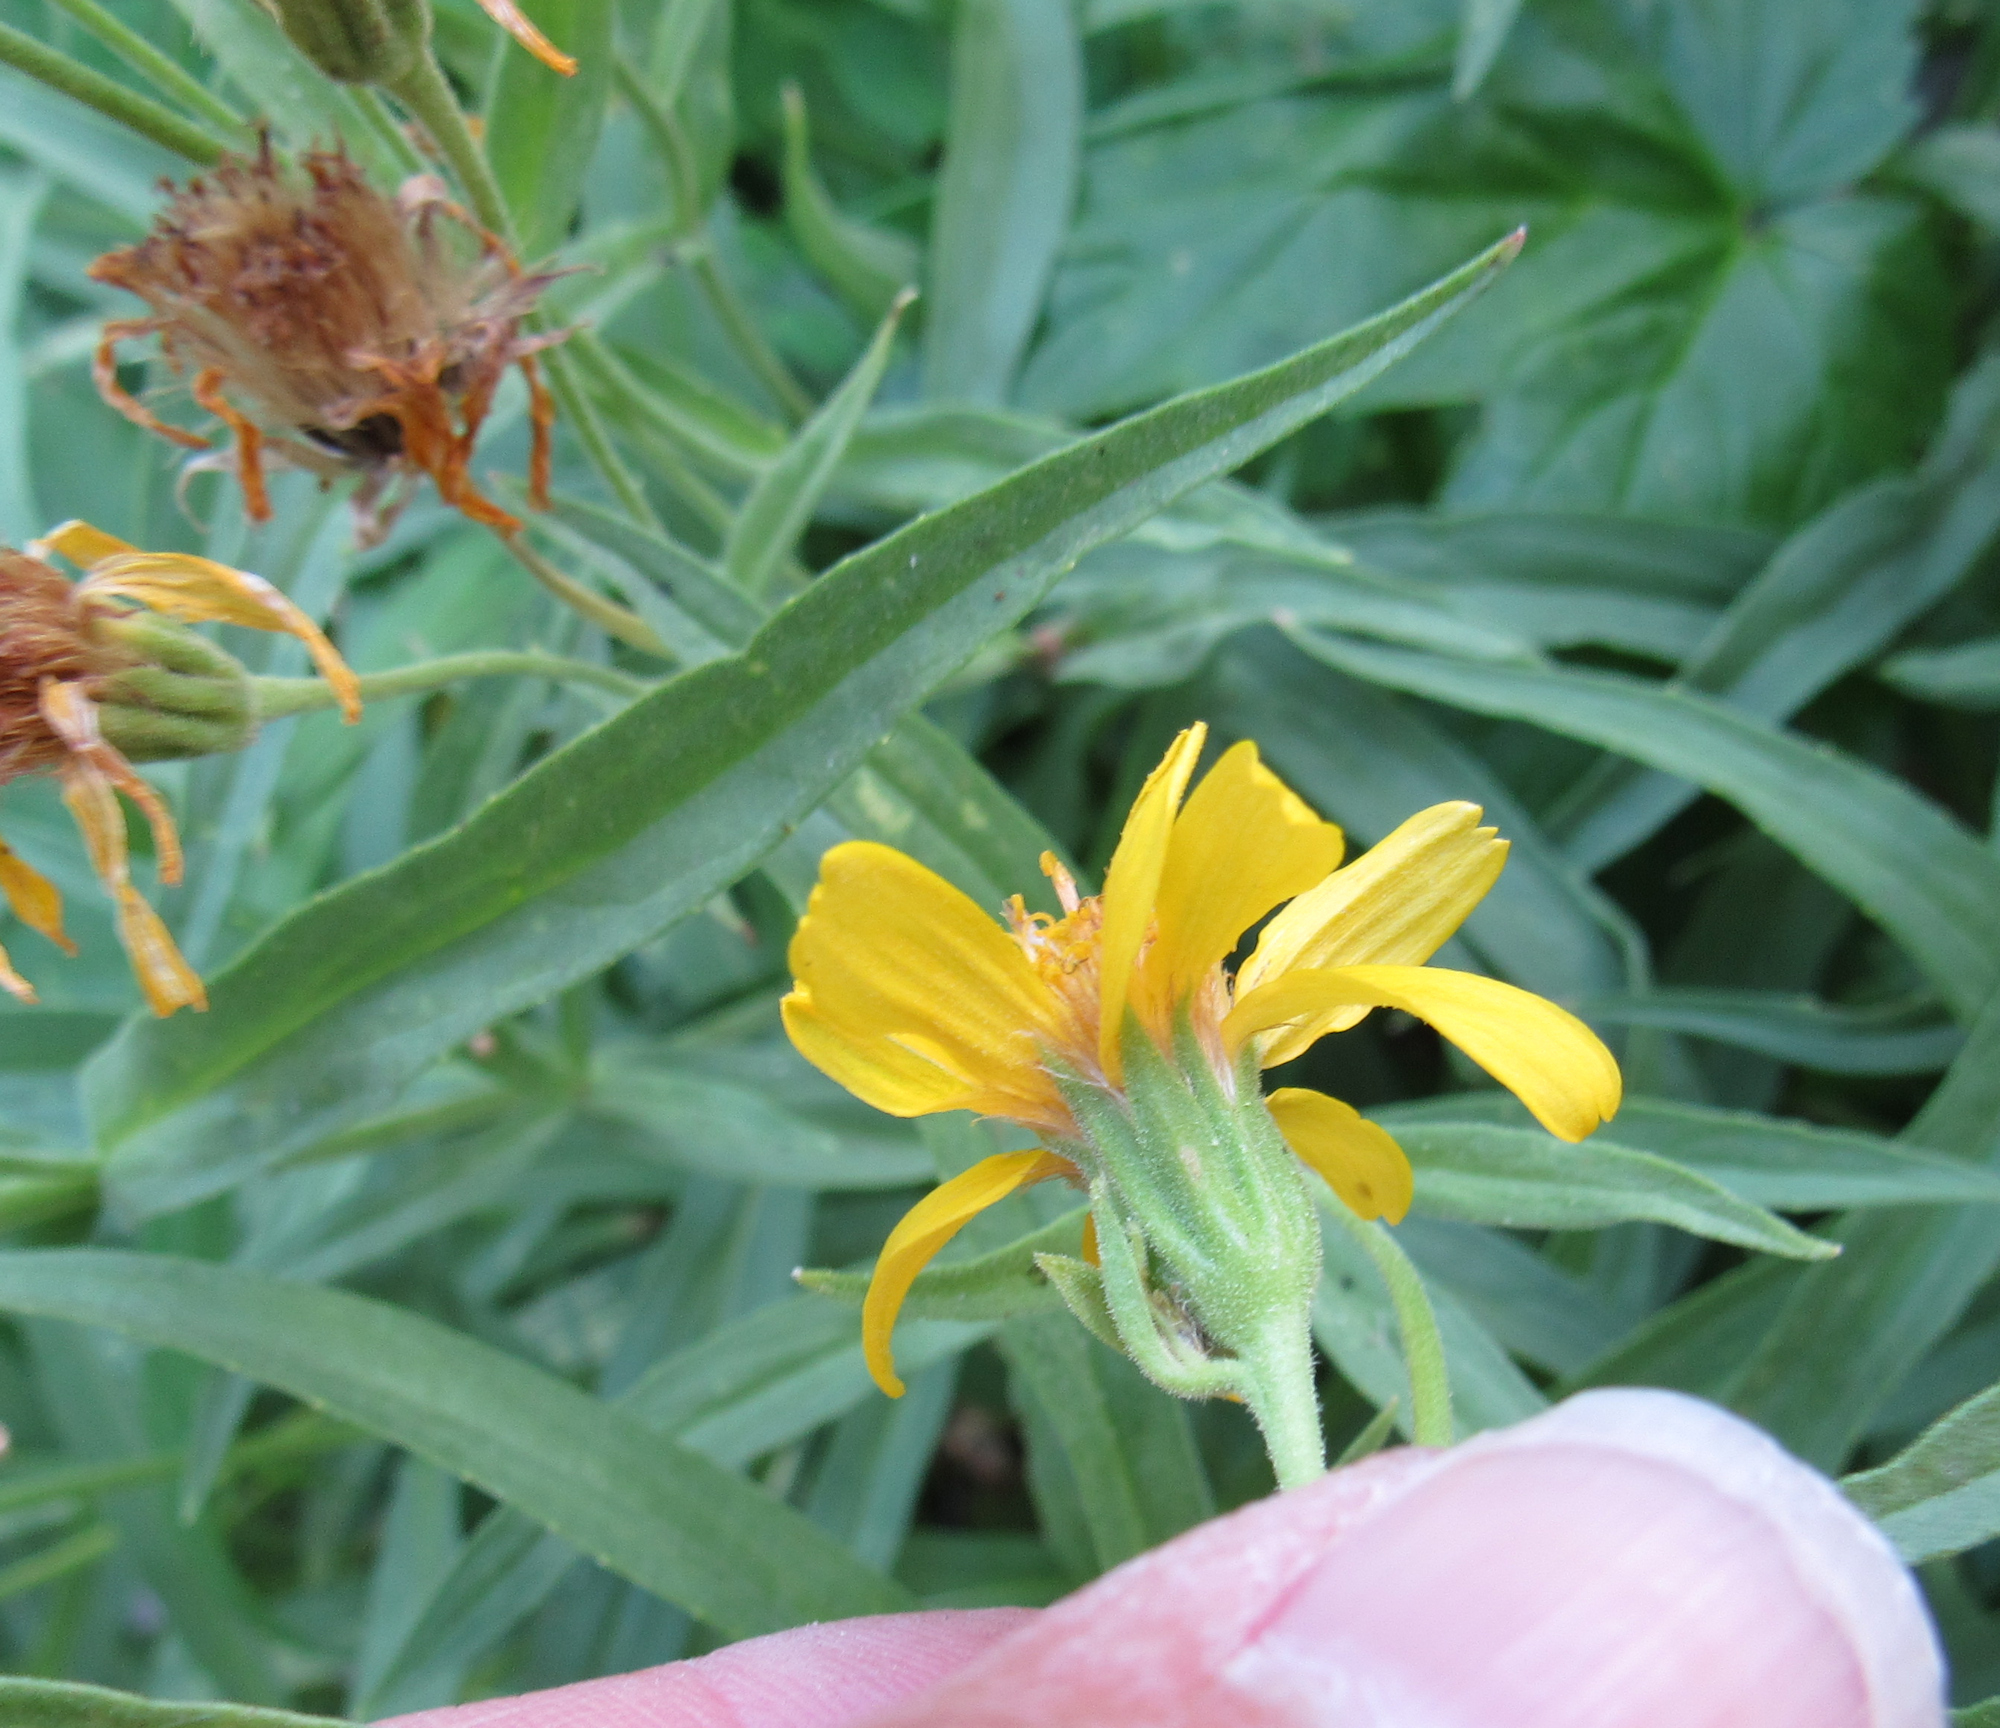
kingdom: Plantae
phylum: Tracheophyta
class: Magnoliopsida
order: Asterales
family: Asteraceae
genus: Arnica
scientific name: Arnica longifolia
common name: Spear-leaf arnica
